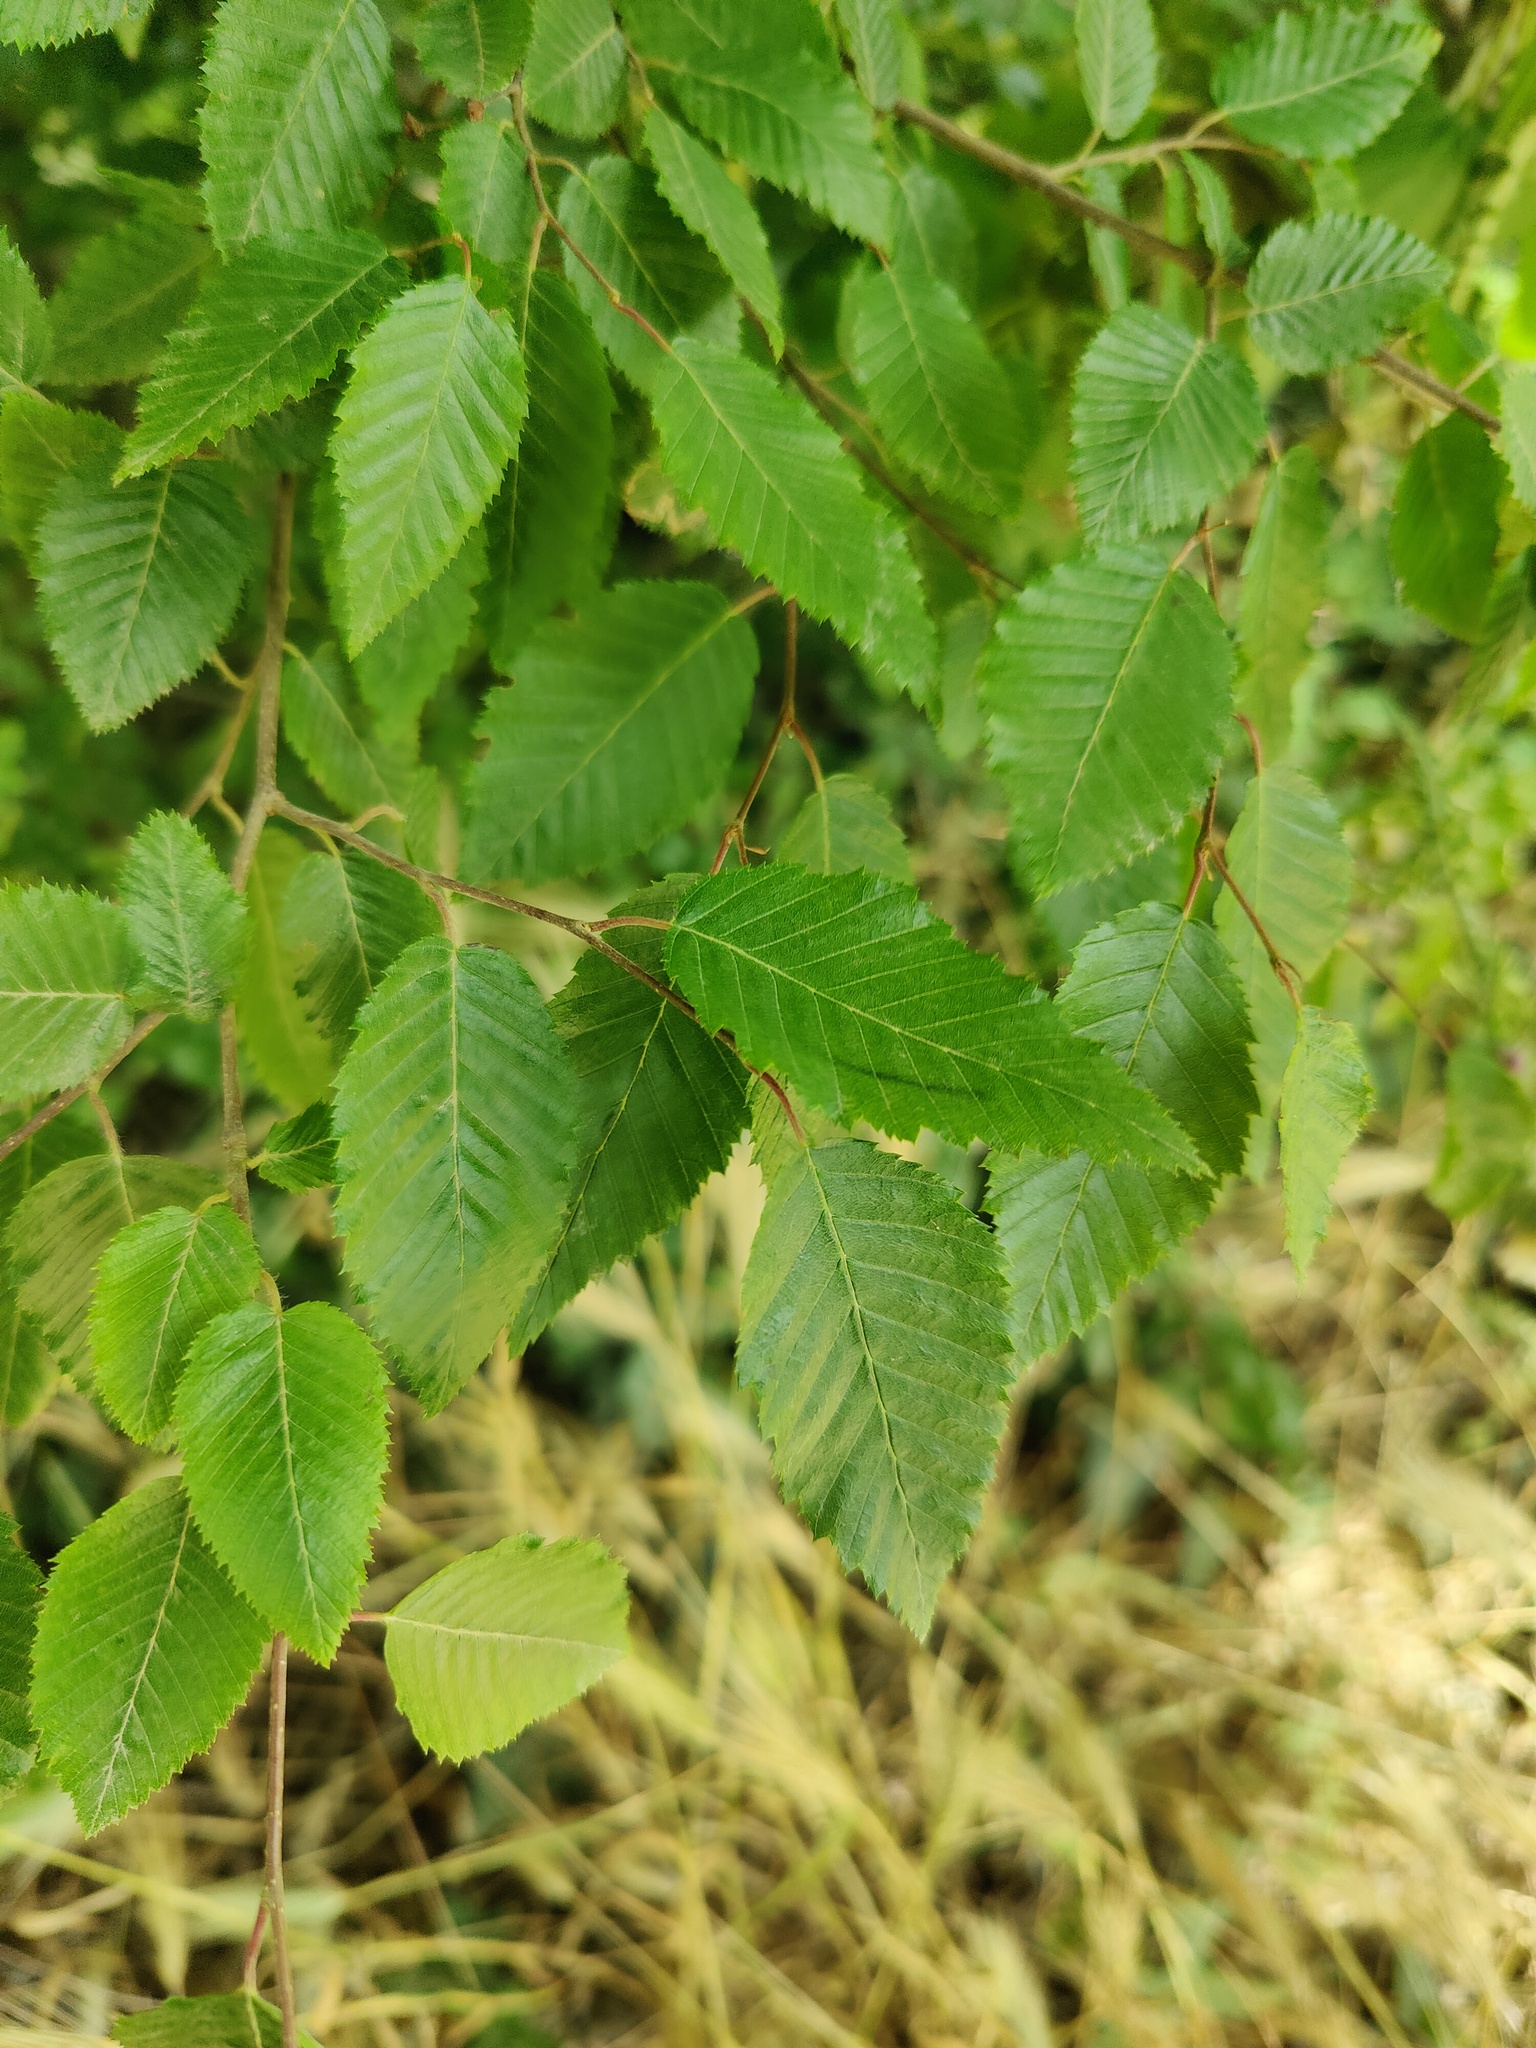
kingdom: Plantae
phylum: Tracheophyta
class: Magnoliopsida
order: Fagales
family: Betulaceae
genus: Carpinus
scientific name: Carpinus orientalis
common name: Eastern hornbeam
